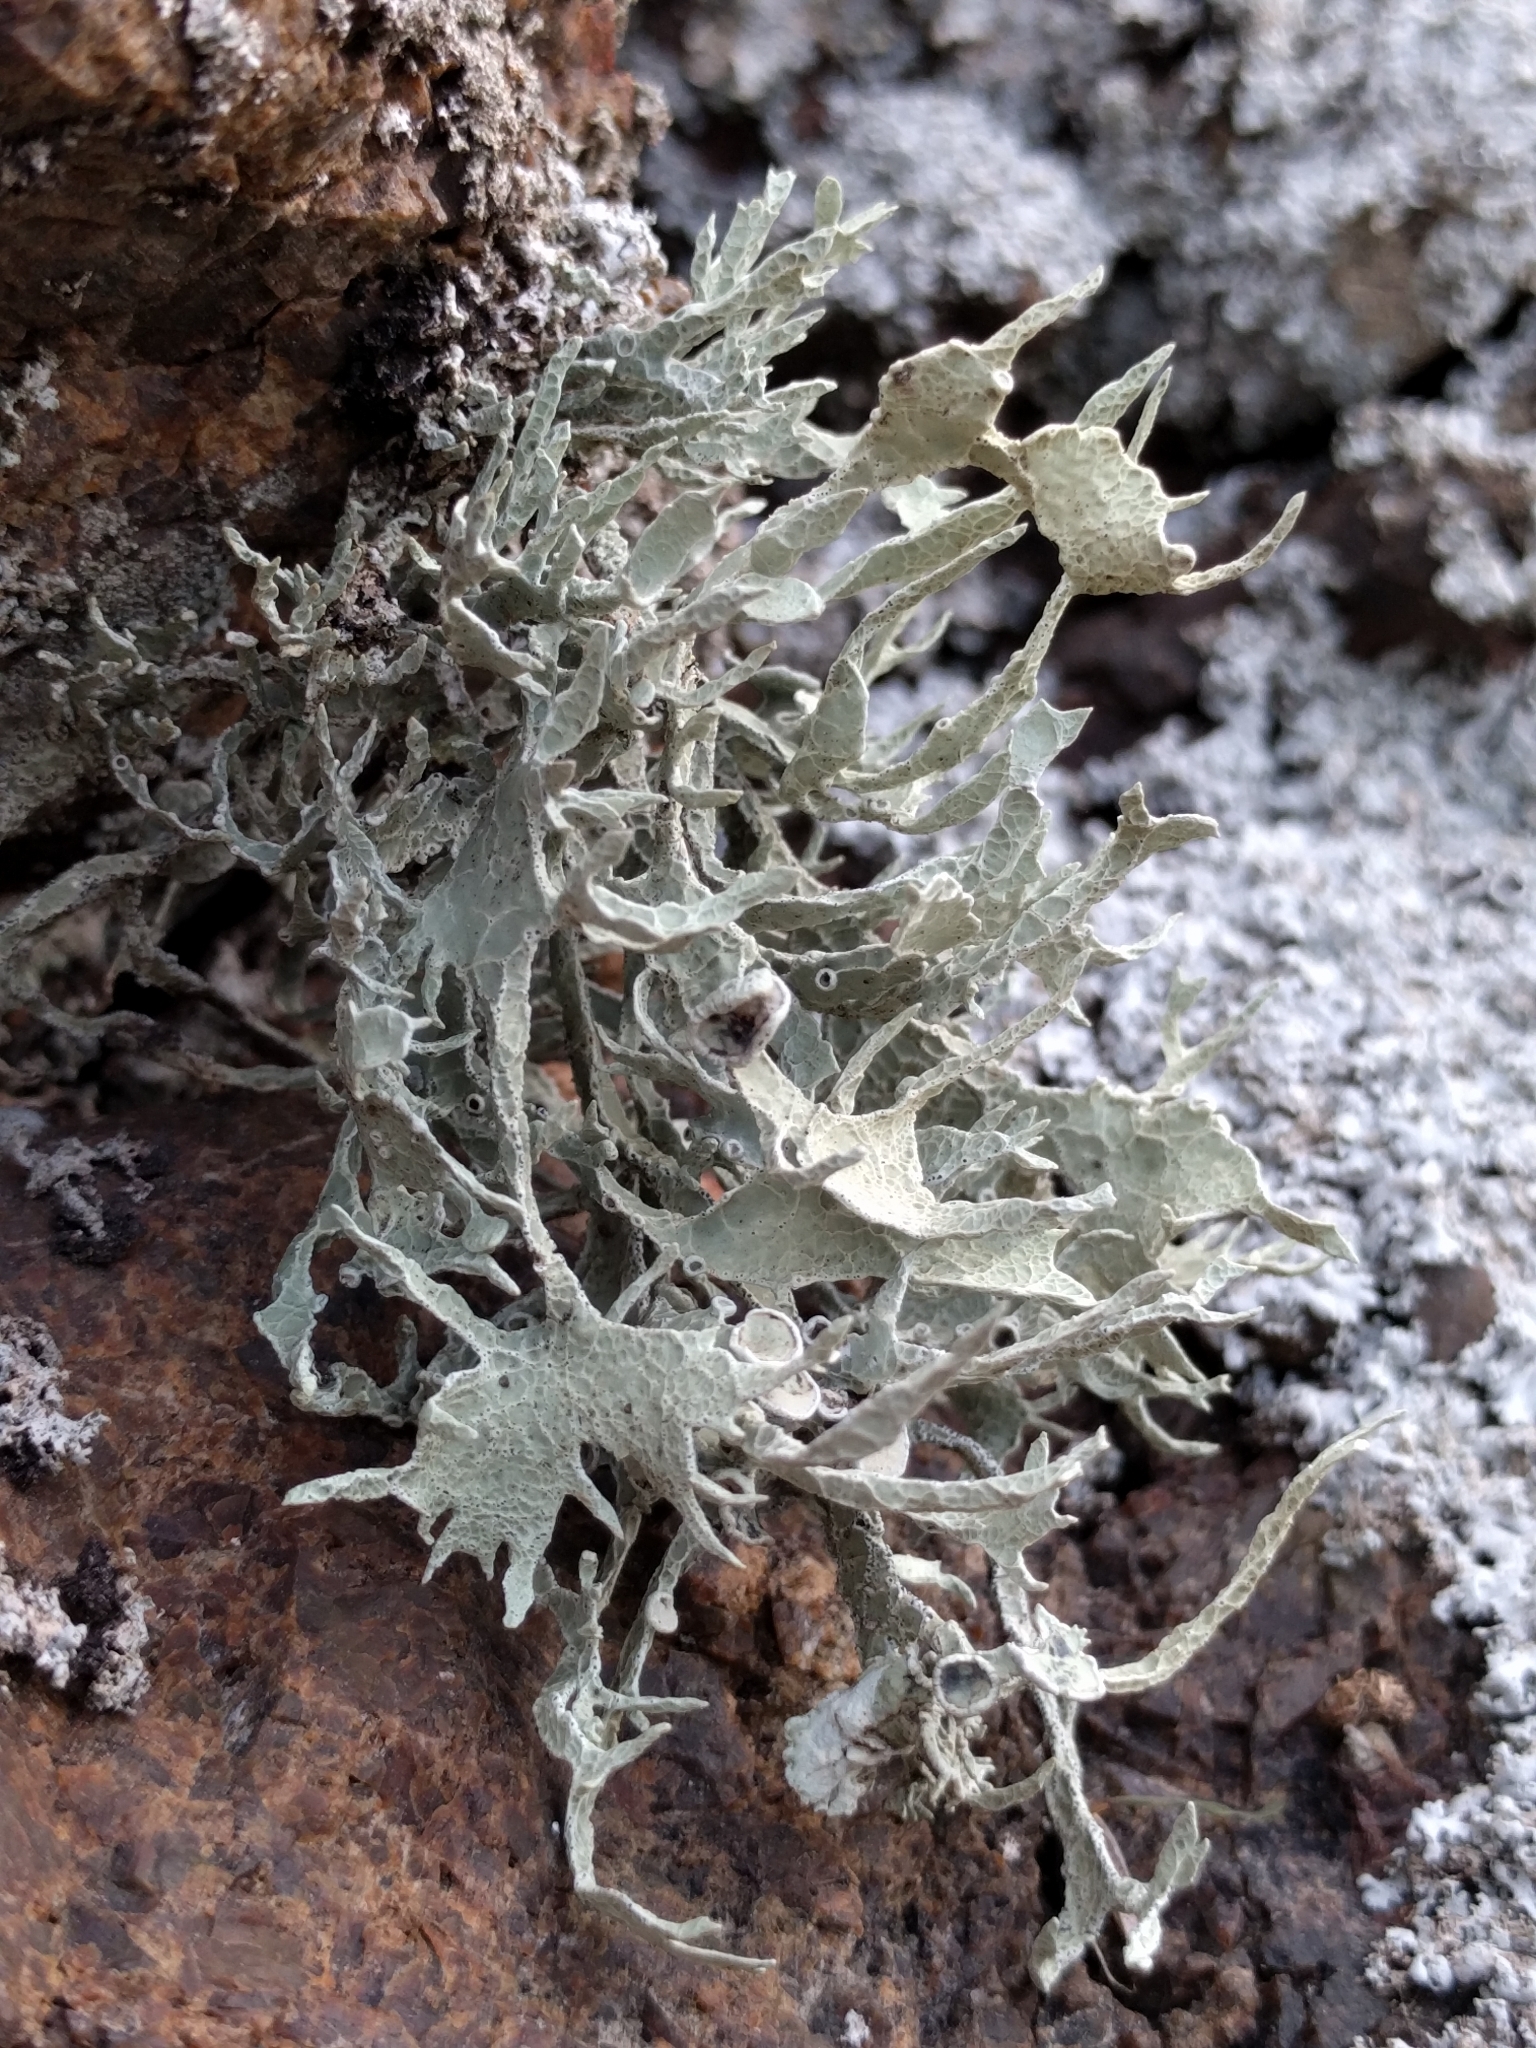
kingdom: Fungi
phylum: Ascomycota
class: Lecanoromycetes
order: Lecanorales
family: Ramalinaceae
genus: Niebla
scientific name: Niebla homalea
